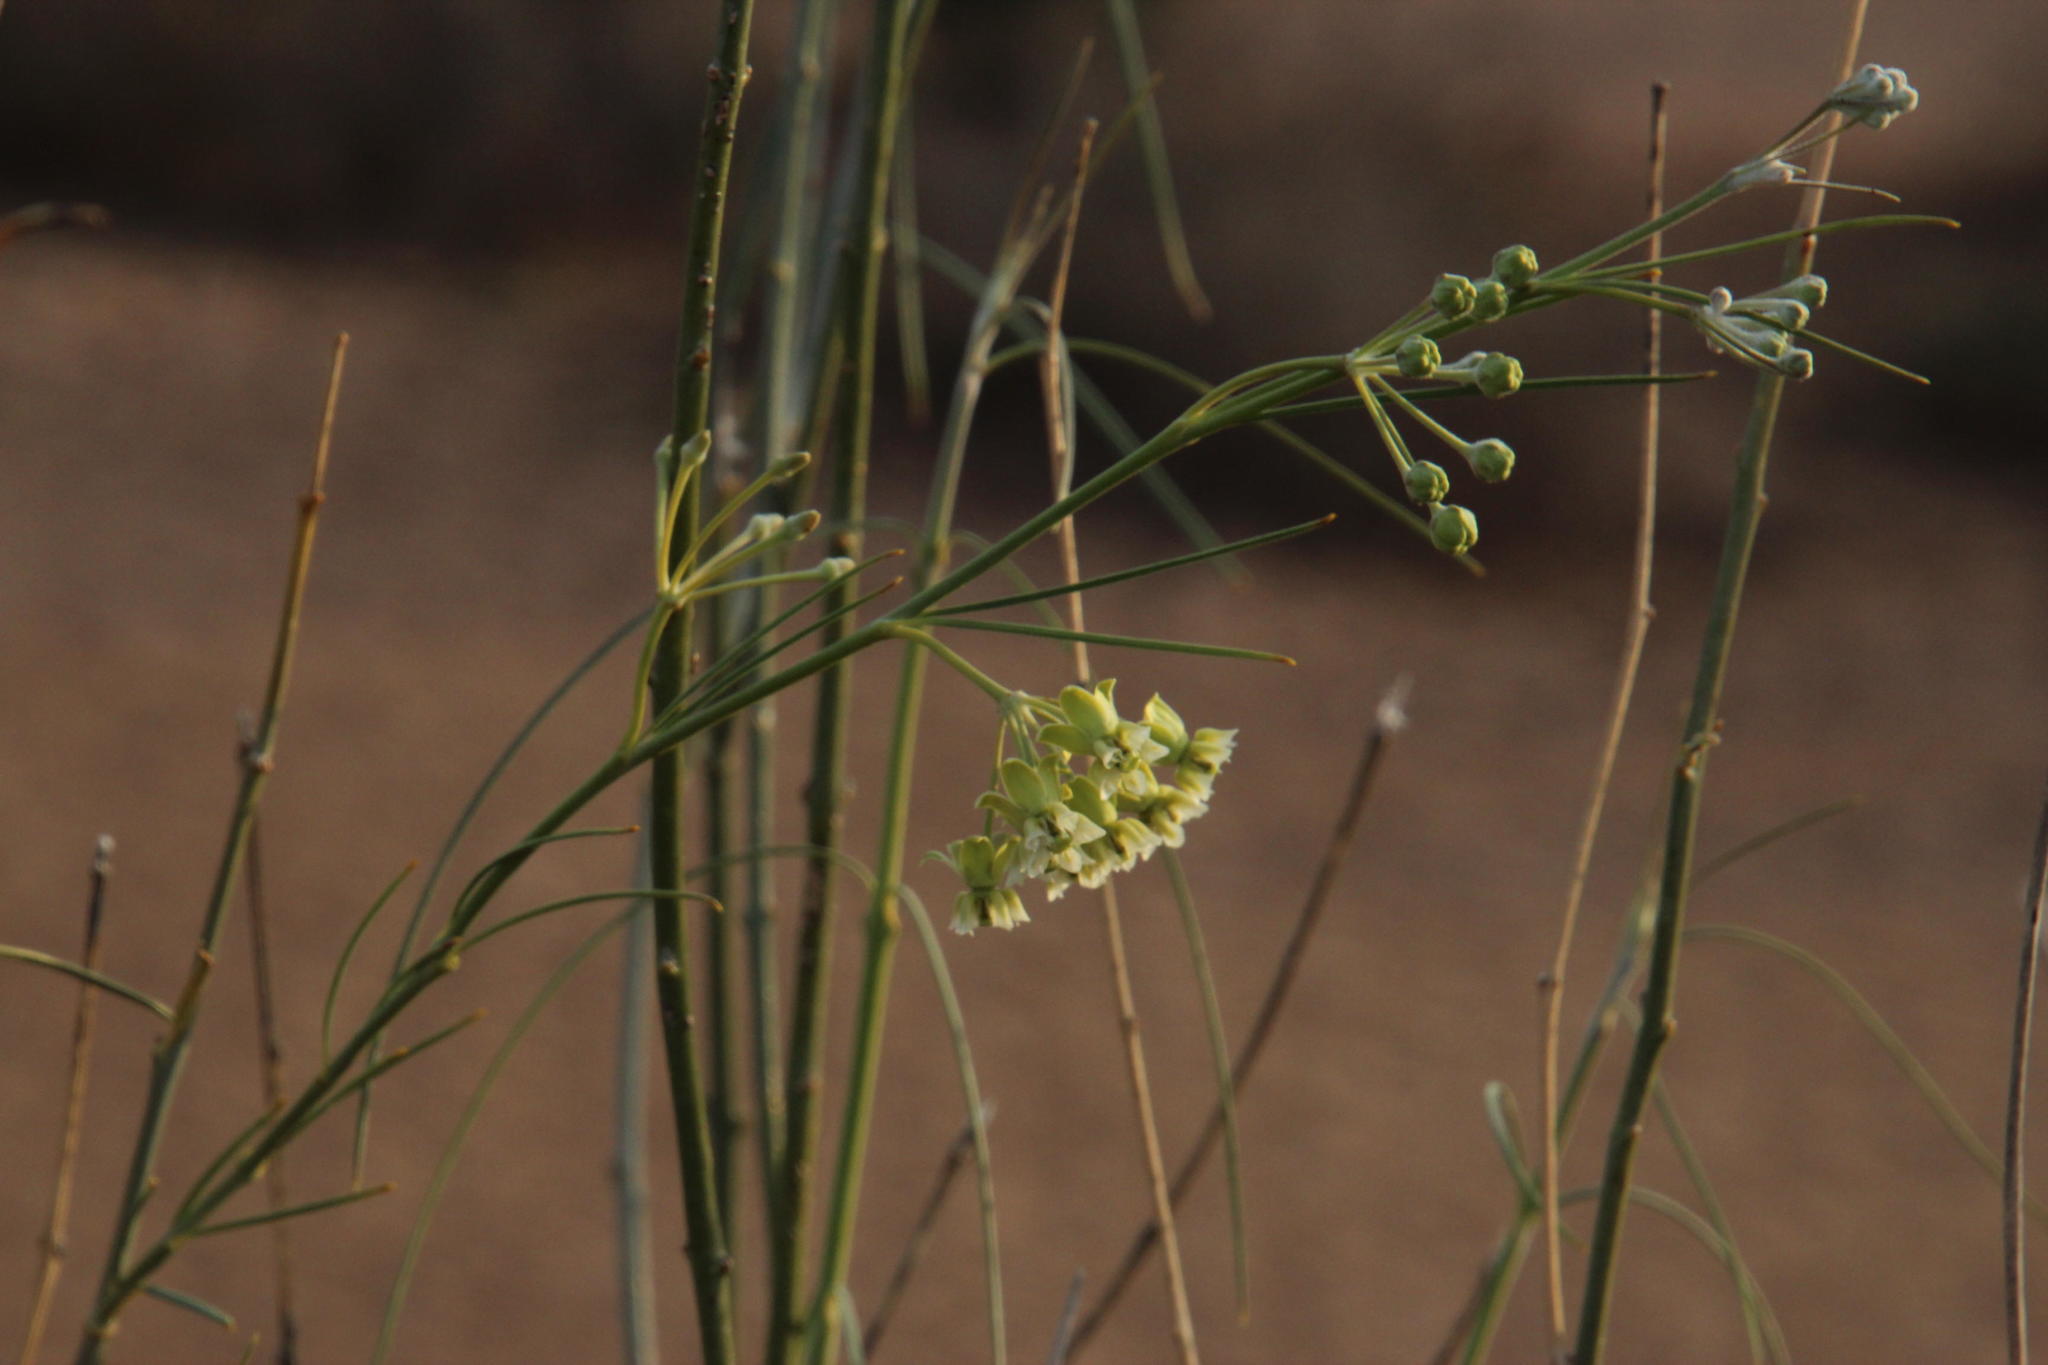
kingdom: Plantae
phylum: Tracheophyta
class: Magnoliopsida
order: Gentianales
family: Apocynaceae
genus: Gomphocarpus
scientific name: Gomphocarpus filiformis
